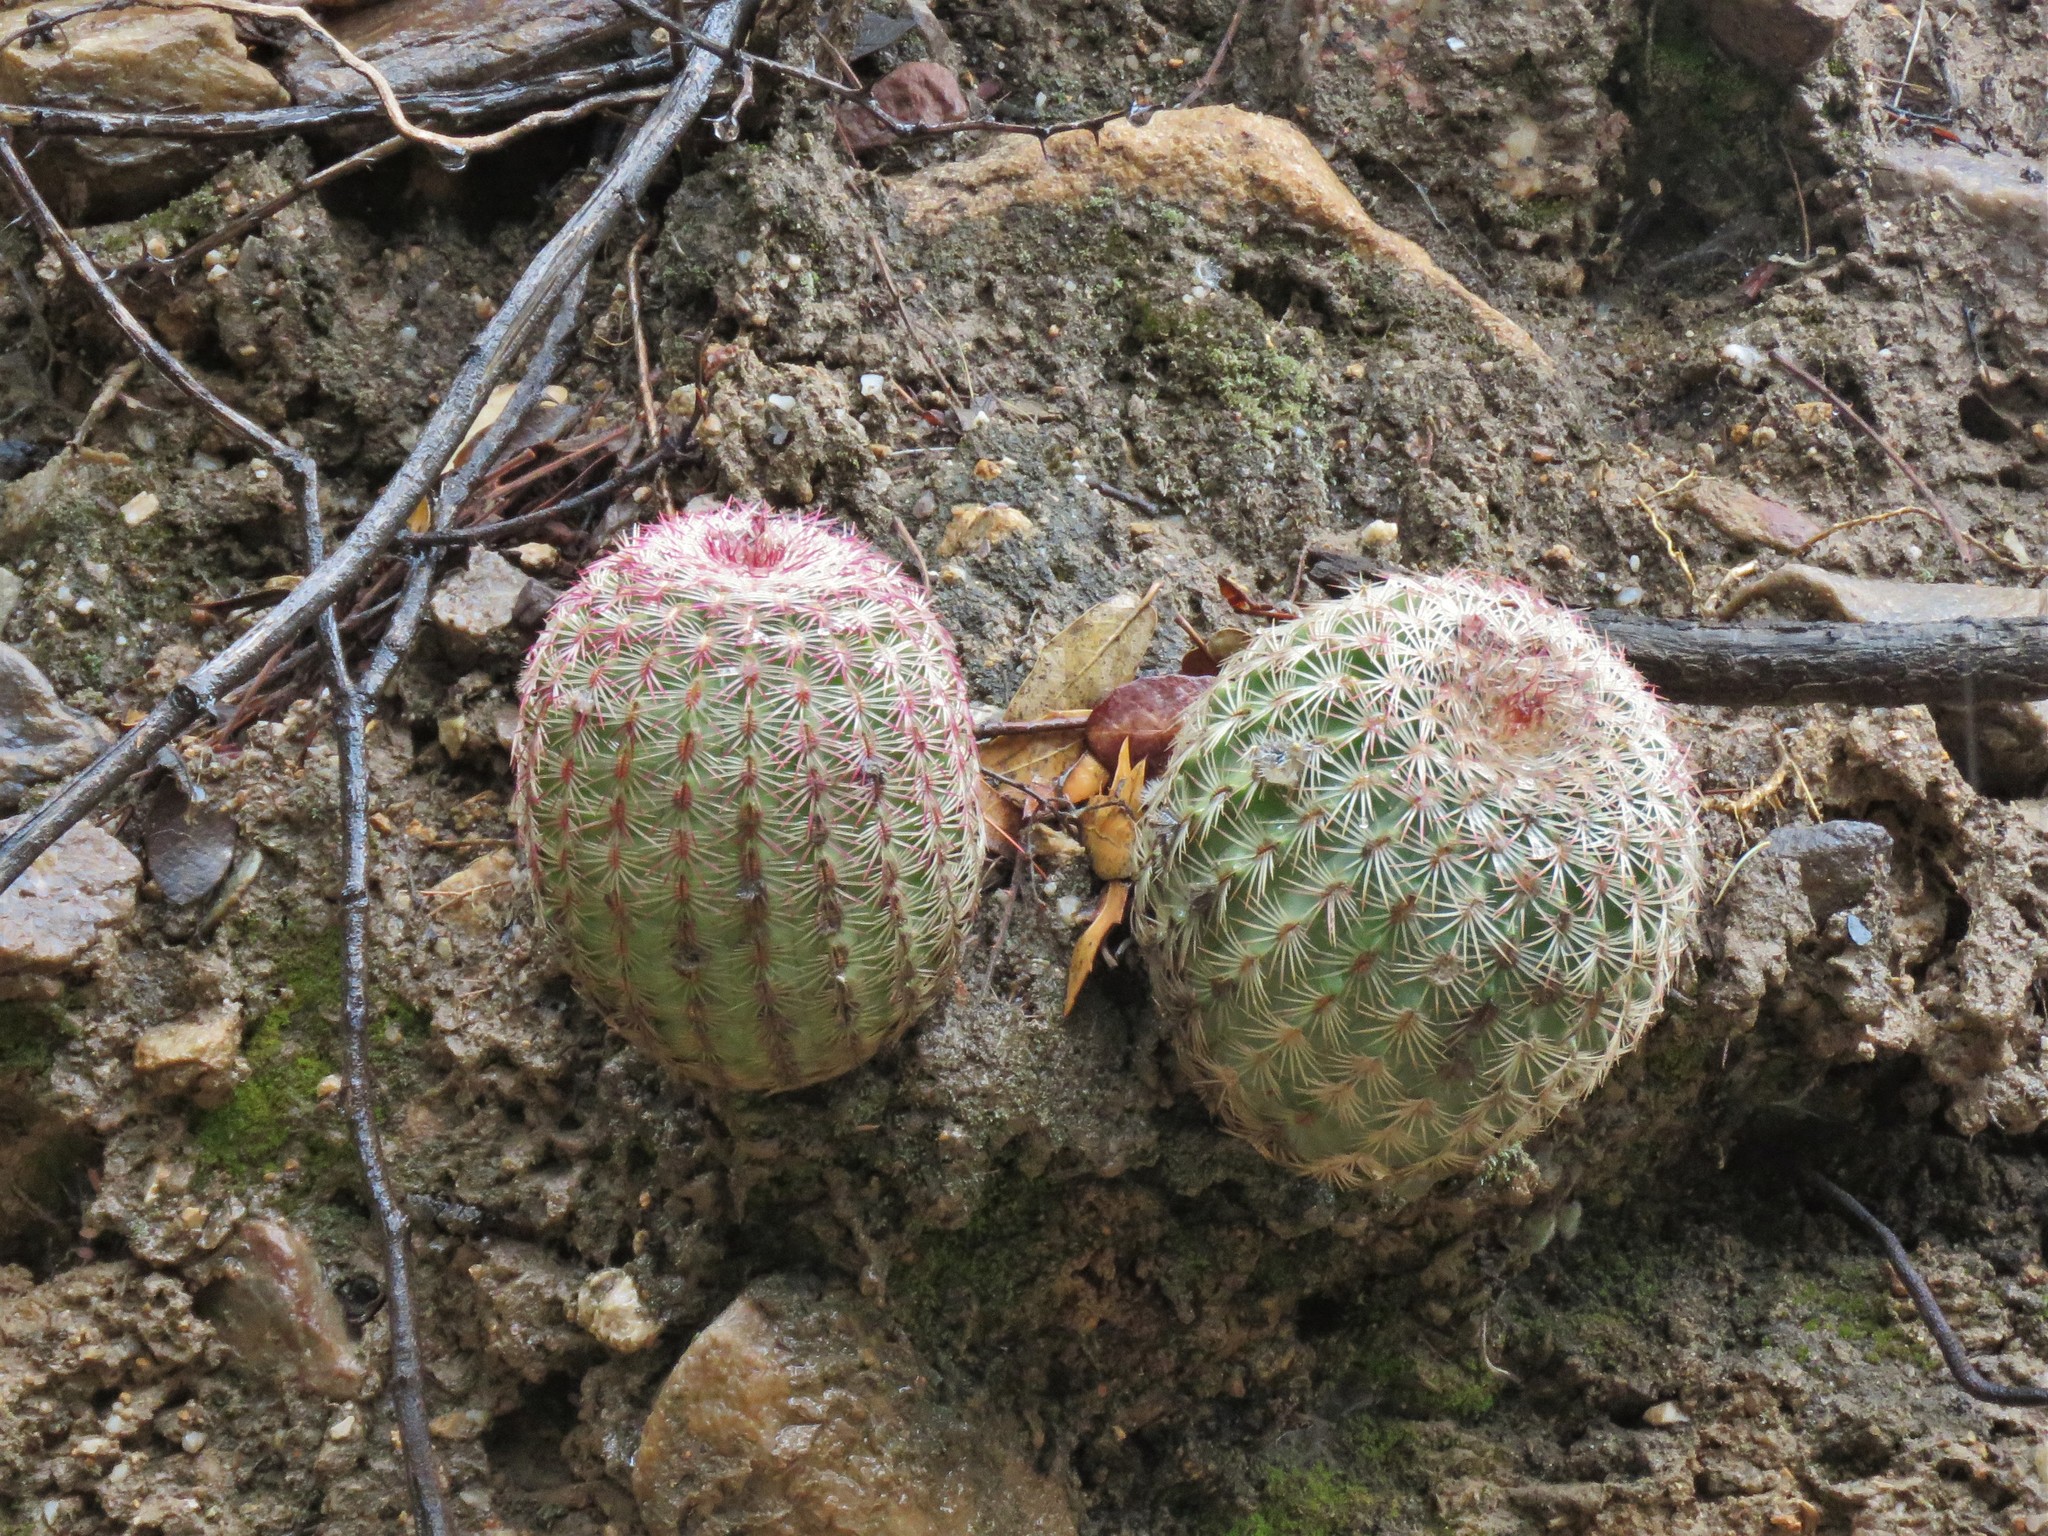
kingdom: Plantae
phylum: Tracheophyta
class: Magnoliopsida
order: Caryophyllales
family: Cactaceae
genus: Echinocereus
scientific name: Echinocereus rigidissimus
